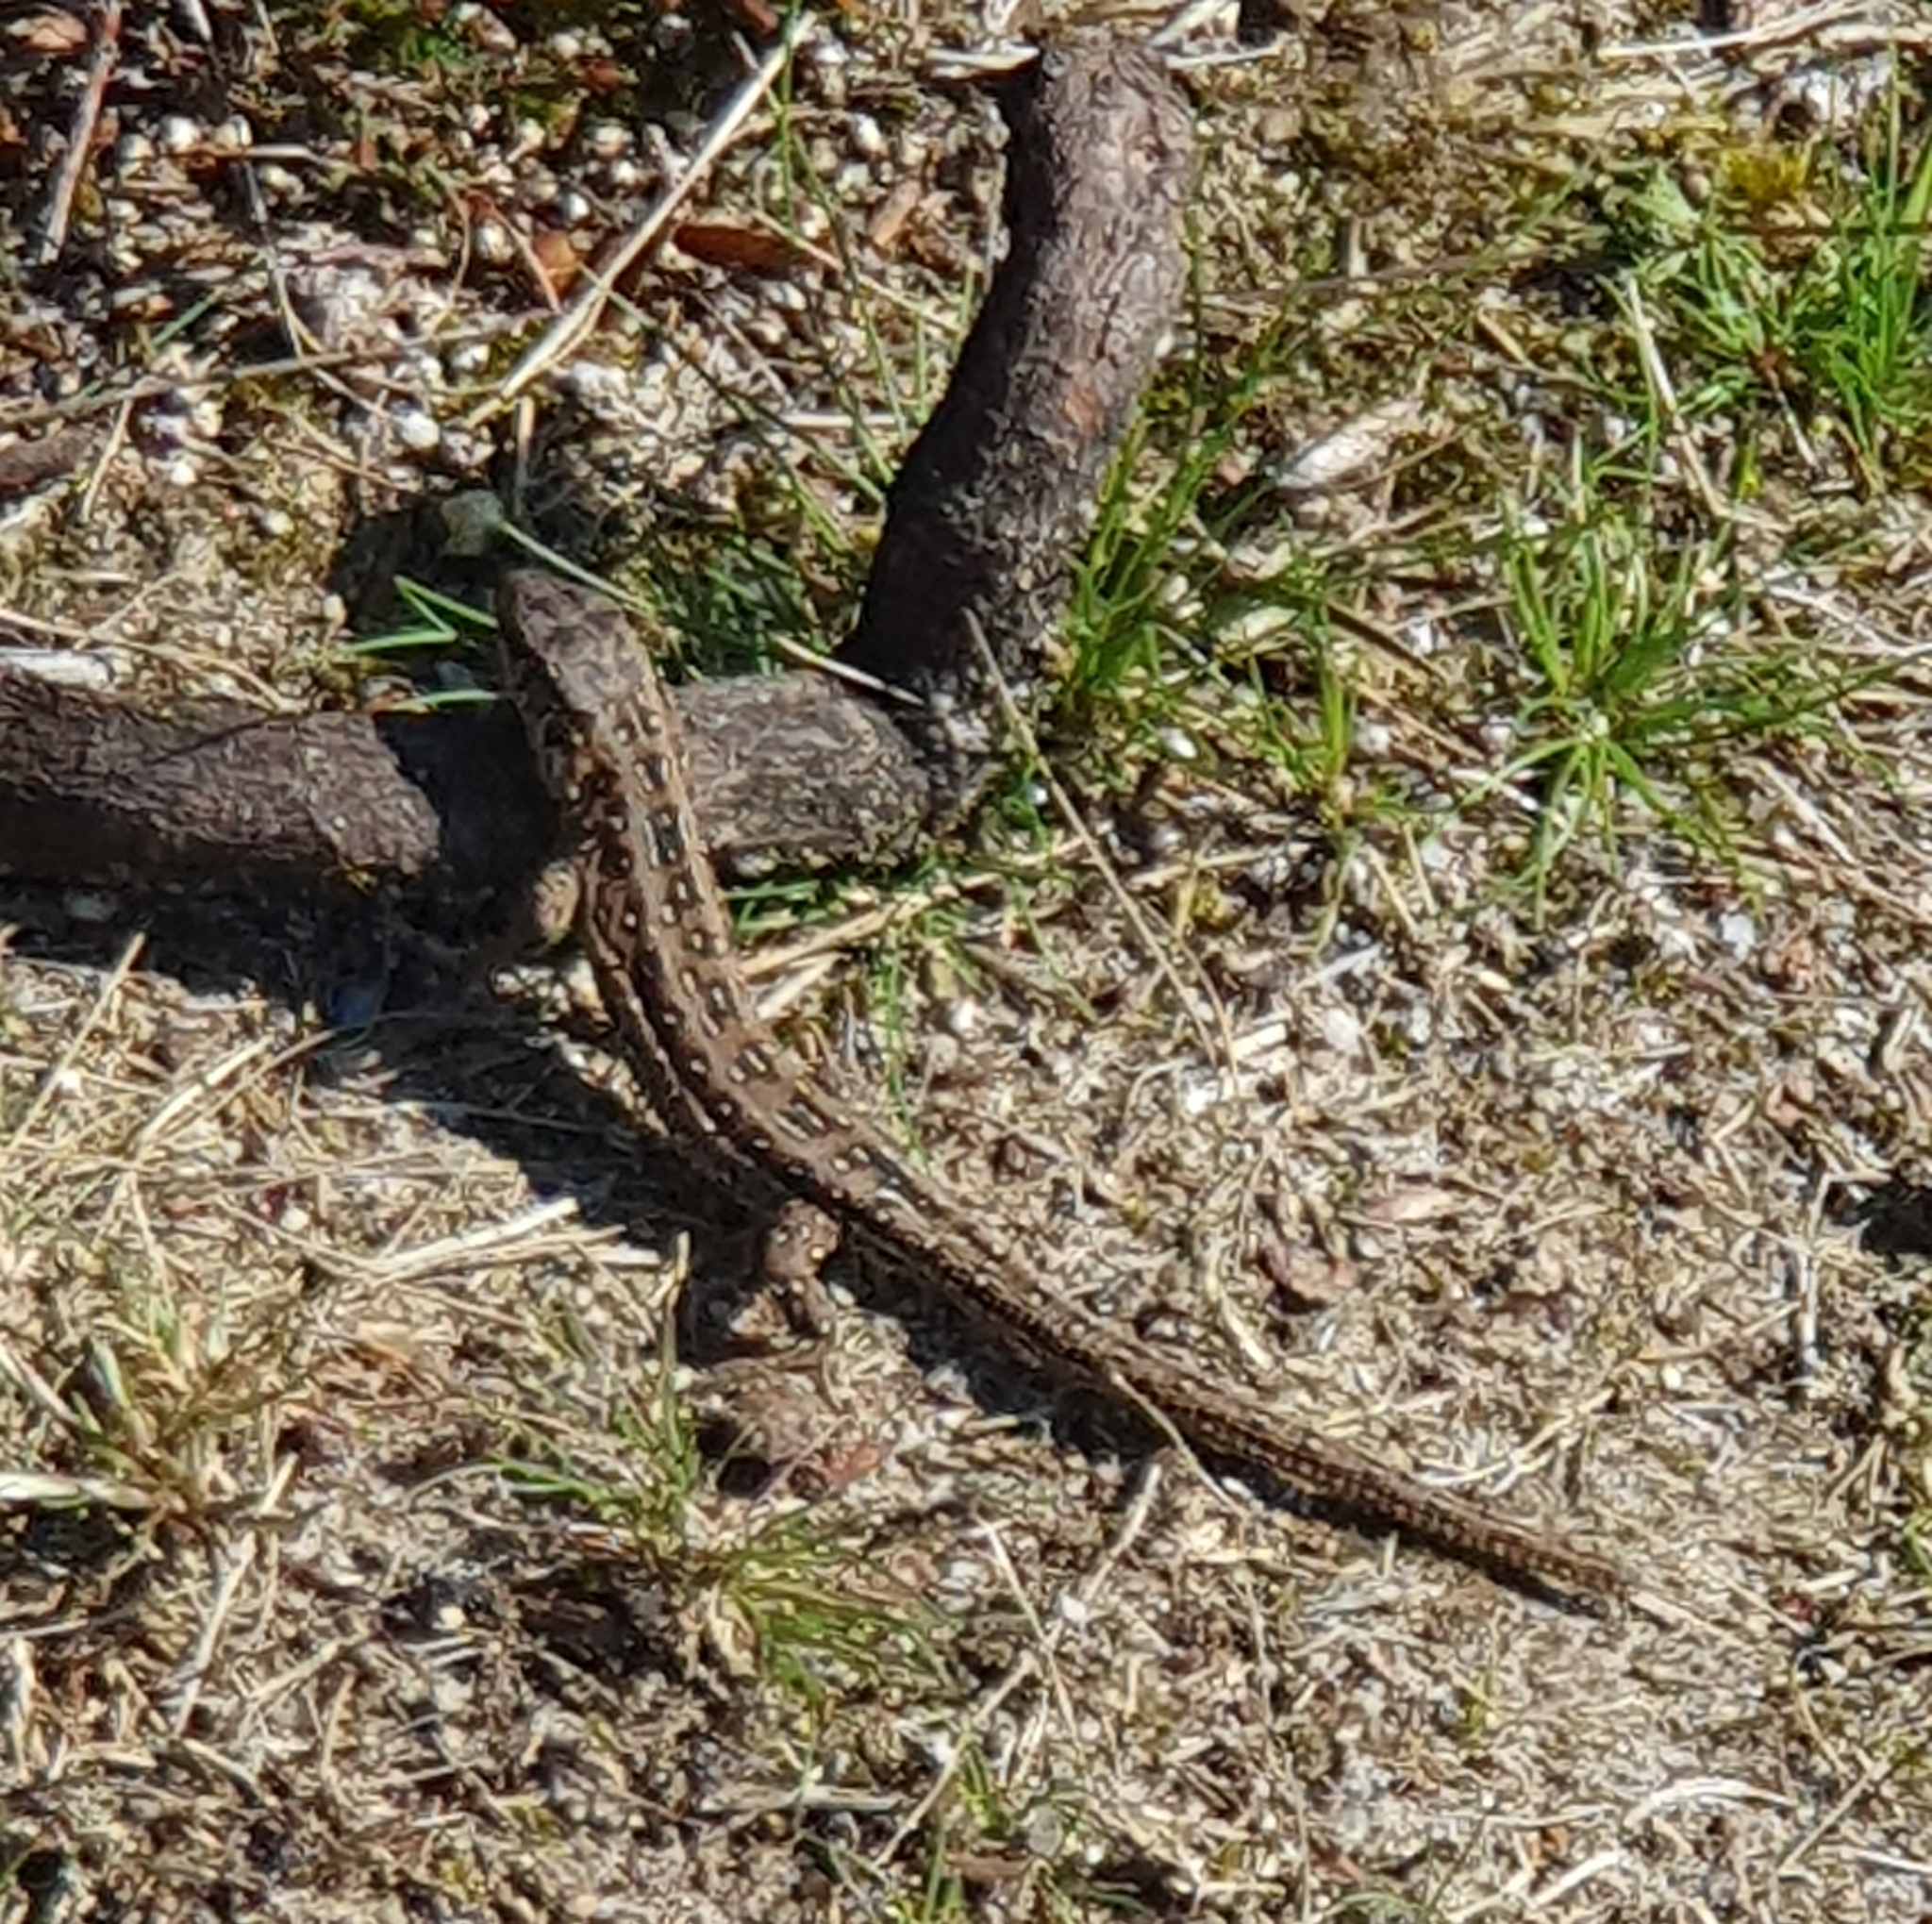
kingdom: Animalia
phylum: Chordata
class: Squamata
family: Lacertidae
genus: Lacerta
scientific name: Lacerta agilis
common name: Sand lizard
